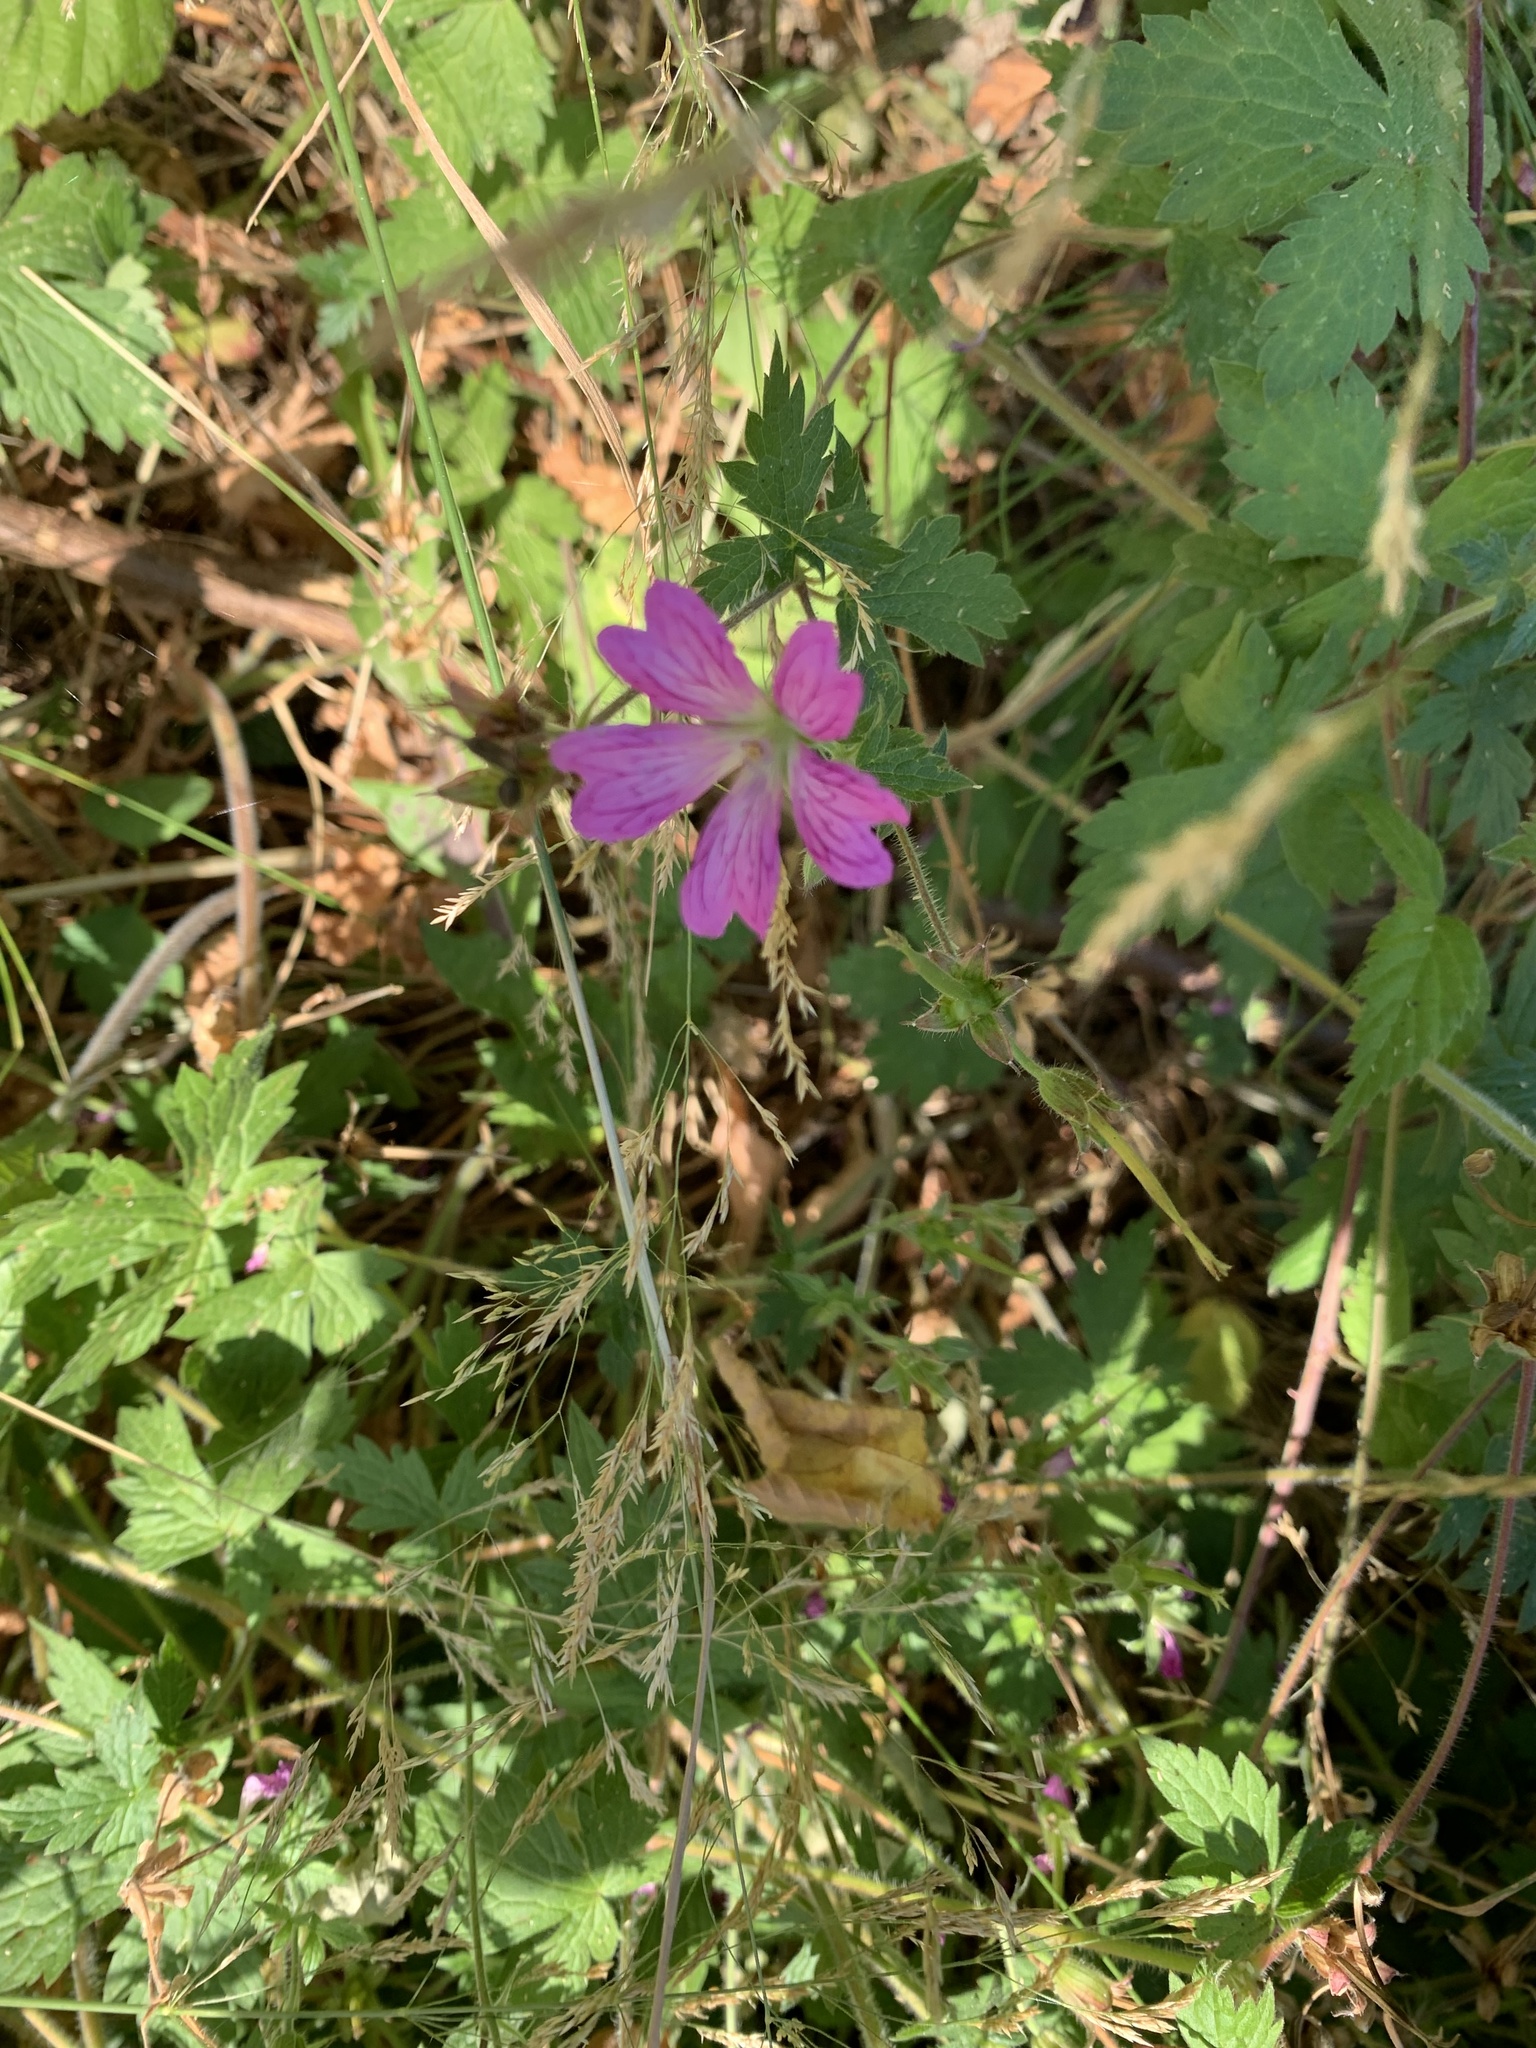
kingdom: Plantae
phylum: Tracheophyta
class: Magnoliopsida
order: Geraniales
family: Geraniaceae
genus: Geranium
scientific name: Geranium oxonianum
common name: Druce's crane's-bill
